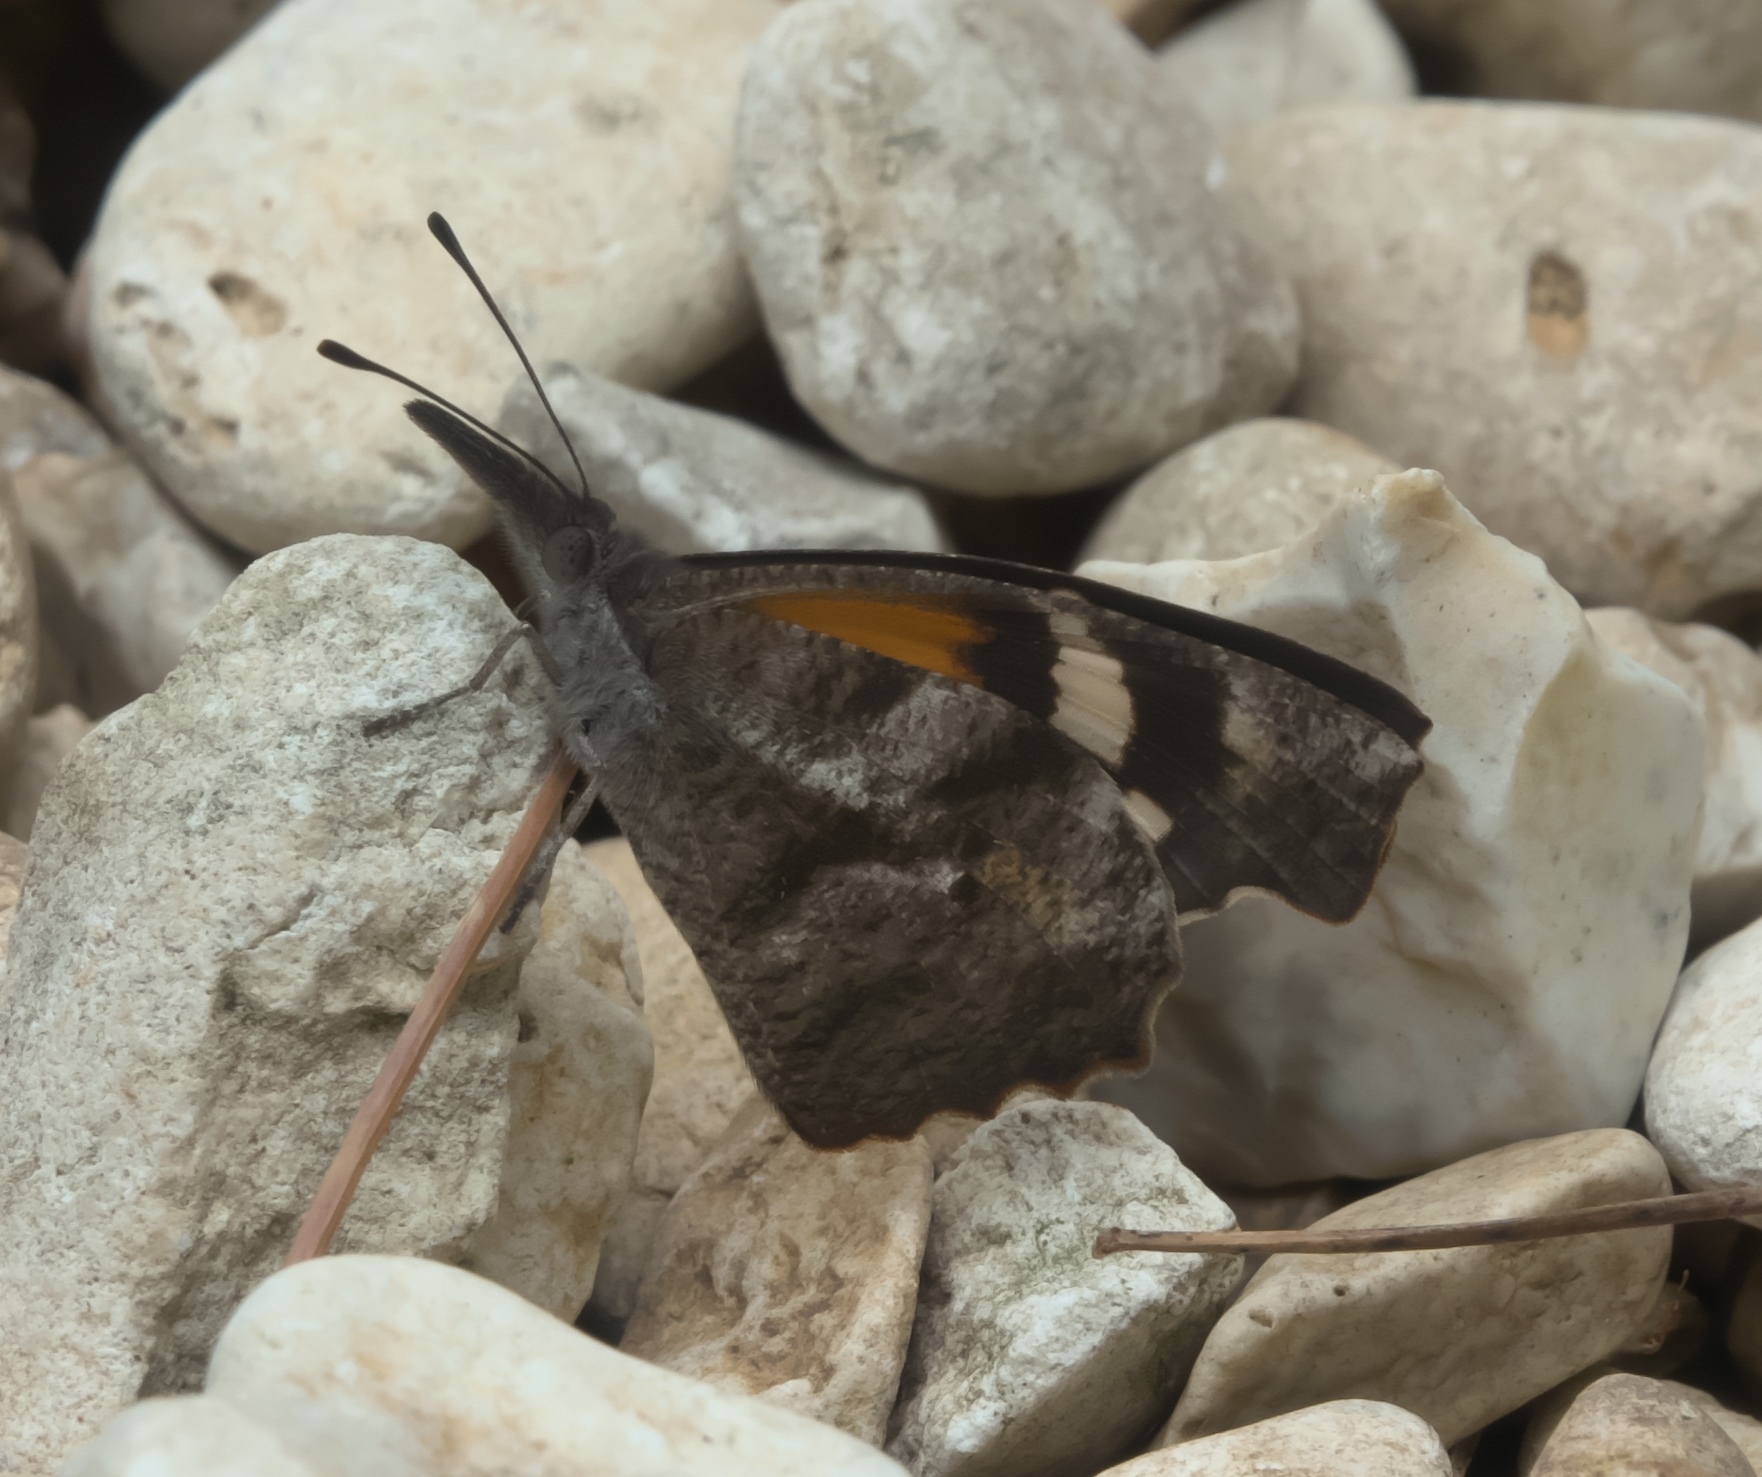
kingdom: Animalia
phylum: Arthropoda
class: Insecta
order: Lepidoptera
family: Nymphalidae
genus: Libytheana
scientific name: Libytheana carinenta
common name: American snout
